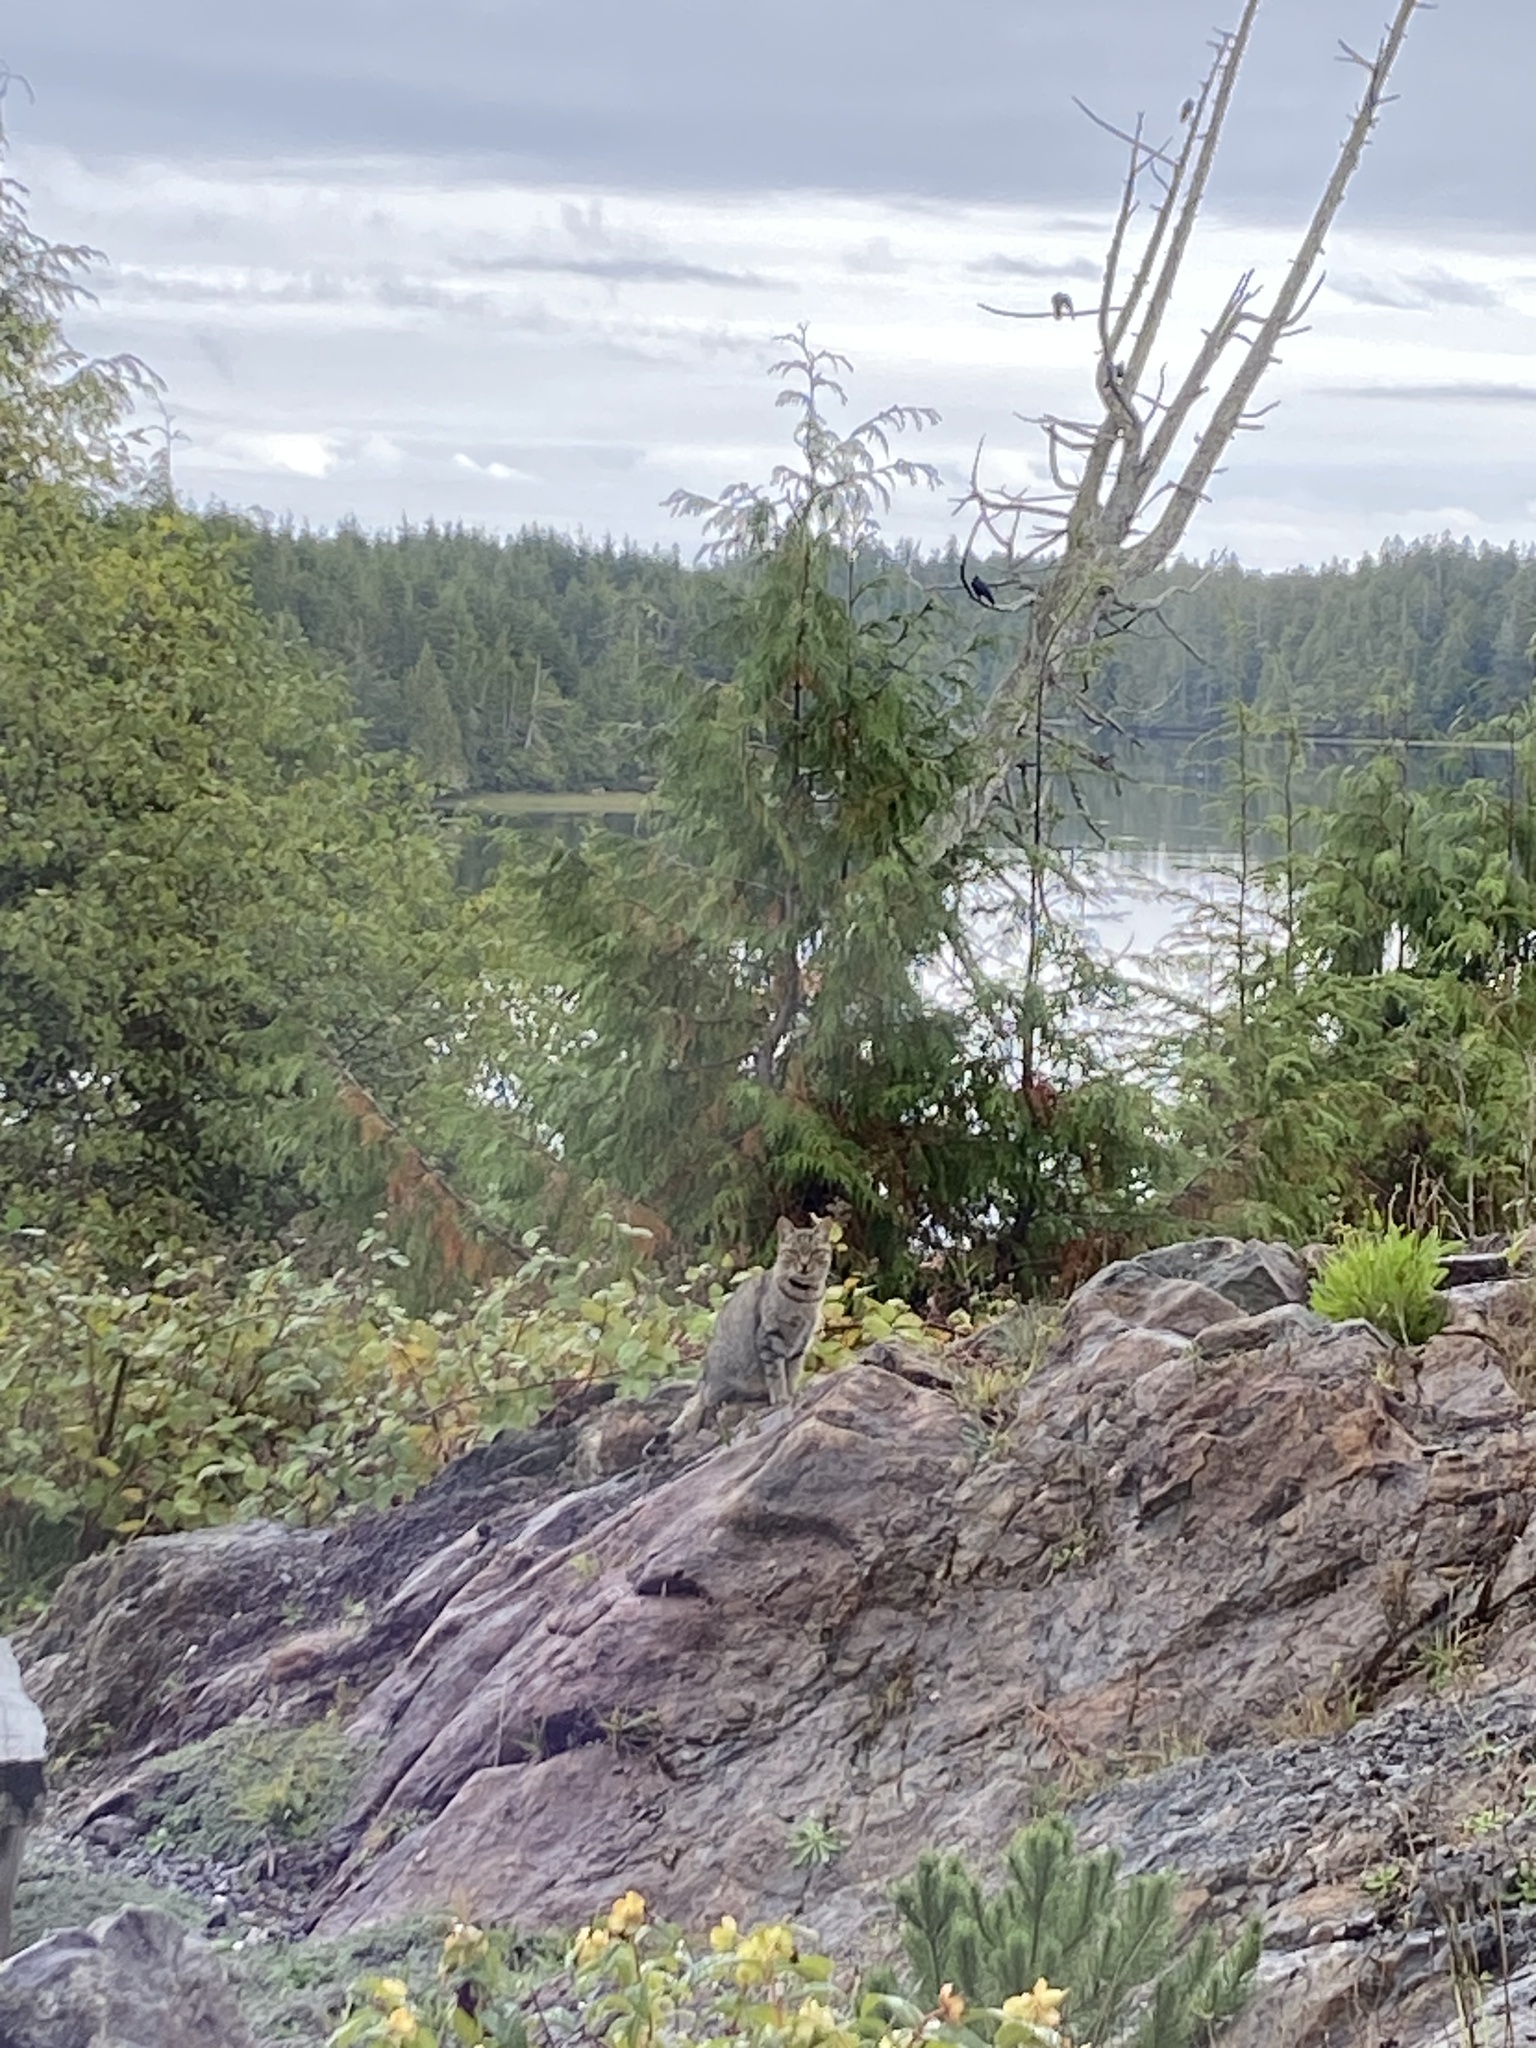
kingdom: Animalia
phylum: Chordata
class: Mammalia
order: Carnivora
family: Felidae
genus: Felis
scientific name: Felis catus
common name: Domestic cat
